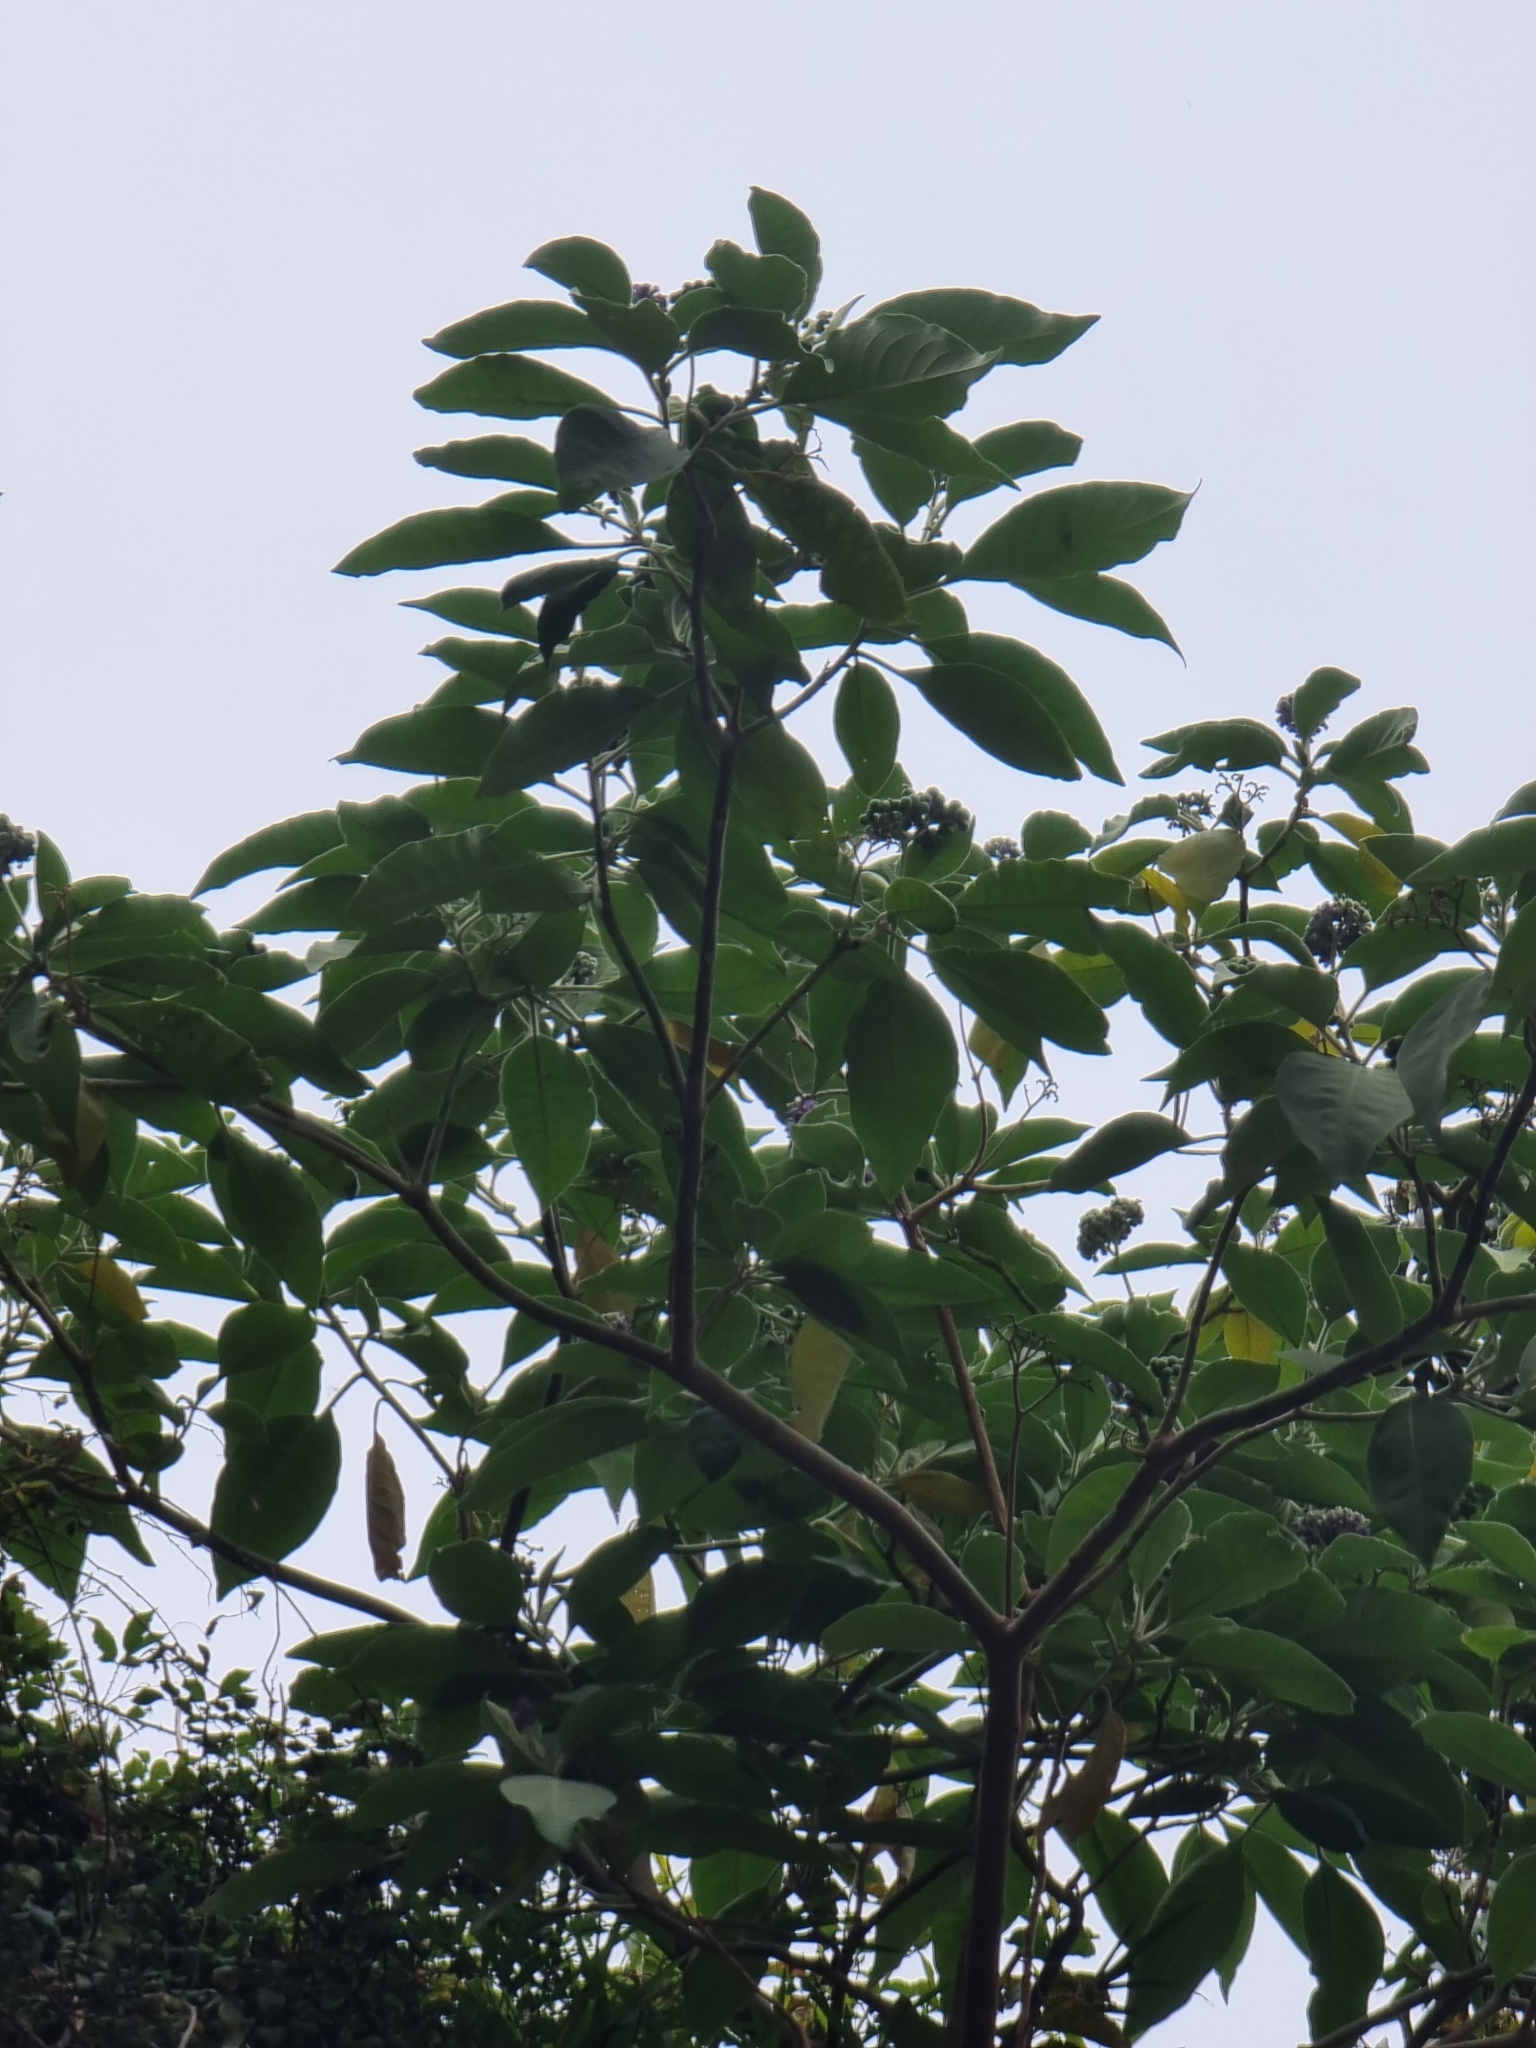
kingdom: Plantae
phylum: Tracheophyta
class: Magnoliopsida
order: Solanales
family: Solanaceae
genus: Solanum
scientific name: Solanum mauritianum
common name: Earleaf nightshade
